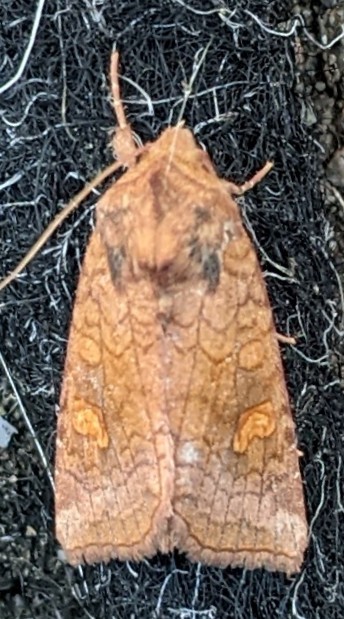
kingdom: Animalia
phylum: Arthropoda
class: Insecta
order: Lepidoptera
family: Noctuidae
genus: Amphipoea
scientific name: Amphipoea americana
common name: American ear moth
